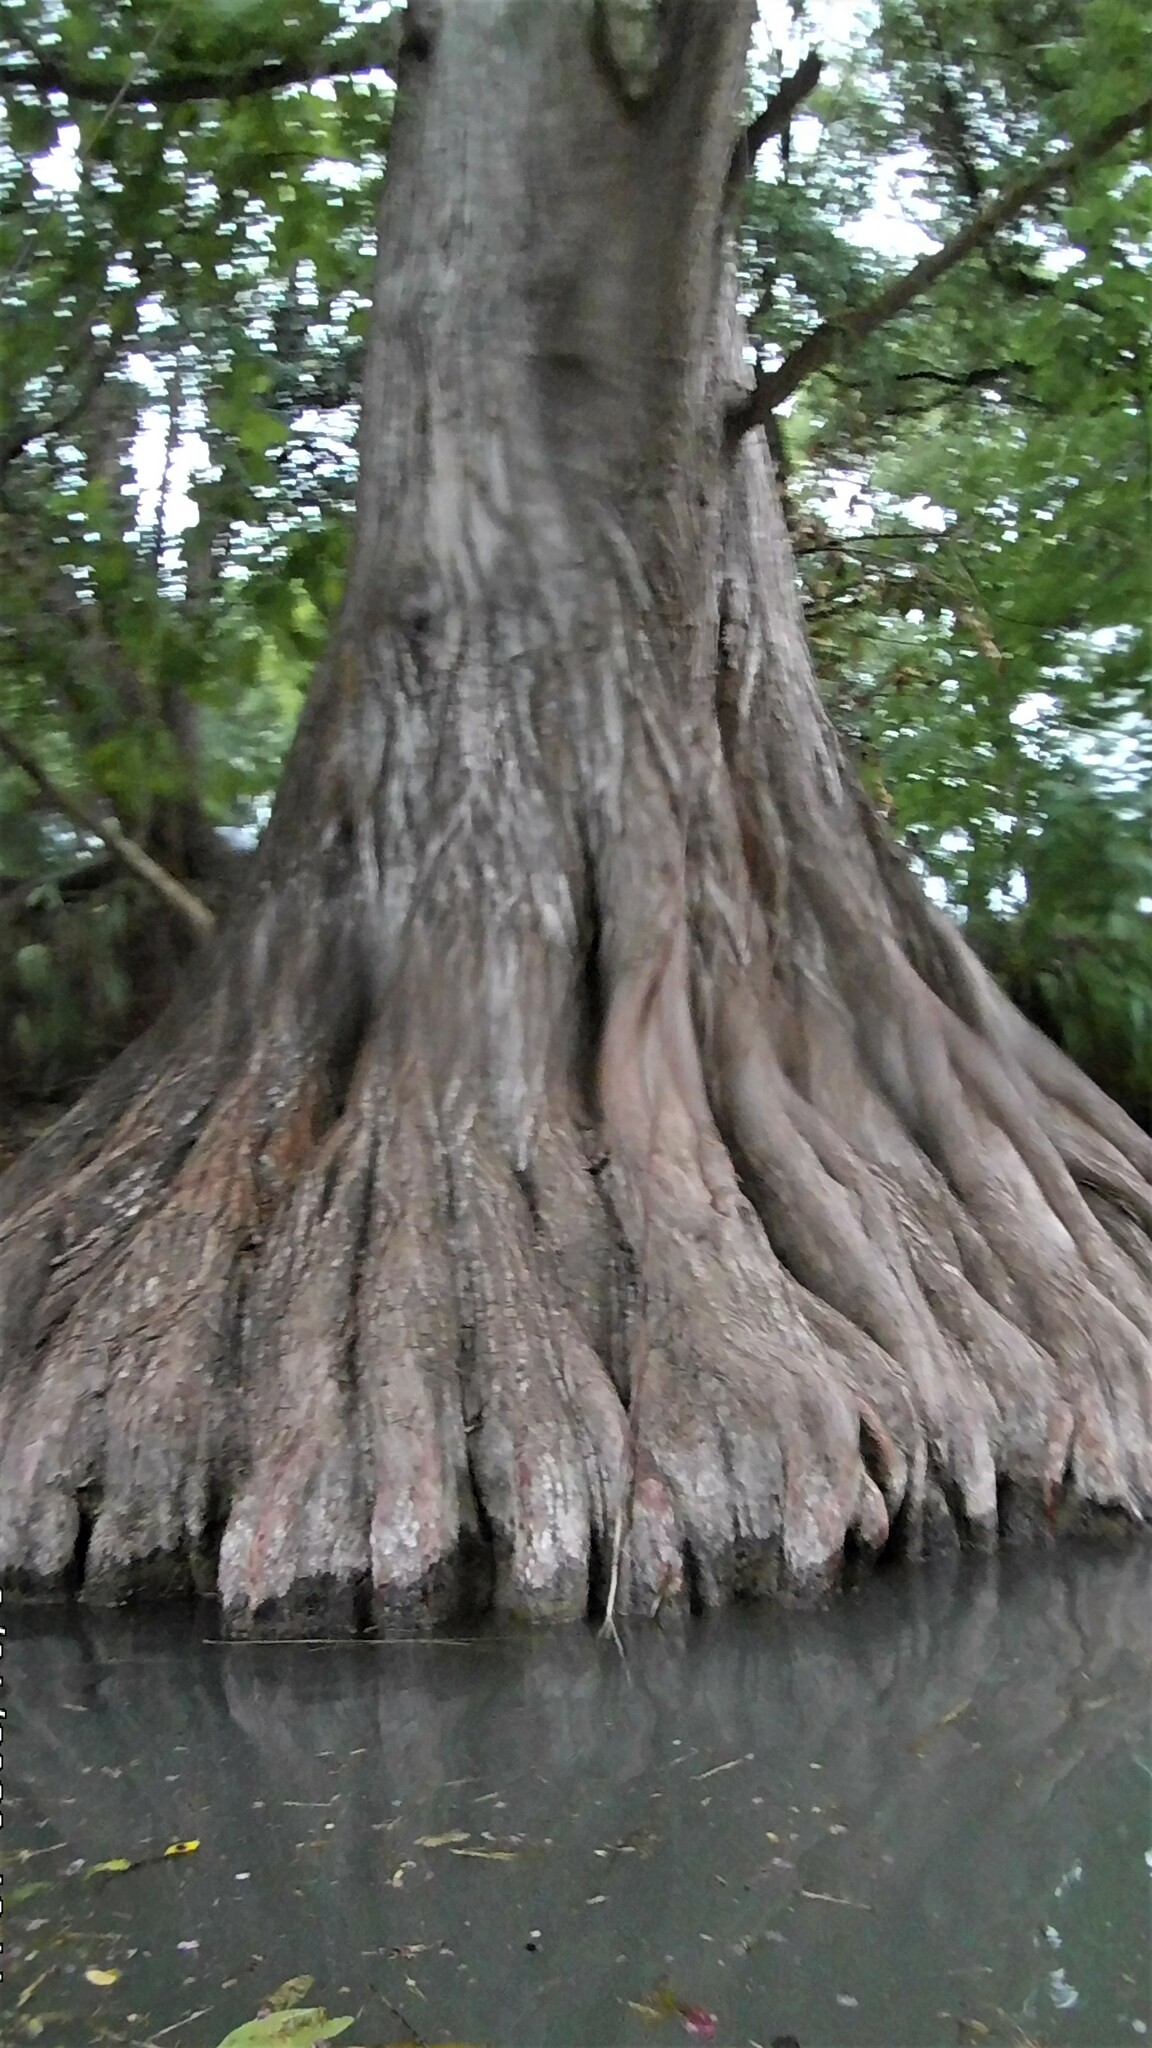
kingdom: Plantae
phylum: Tracheophyta
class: Pinopsida
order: Pinales
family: Cupressaceae
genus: Taxodium
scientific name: Taxodium distichum
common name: Bald cypress
